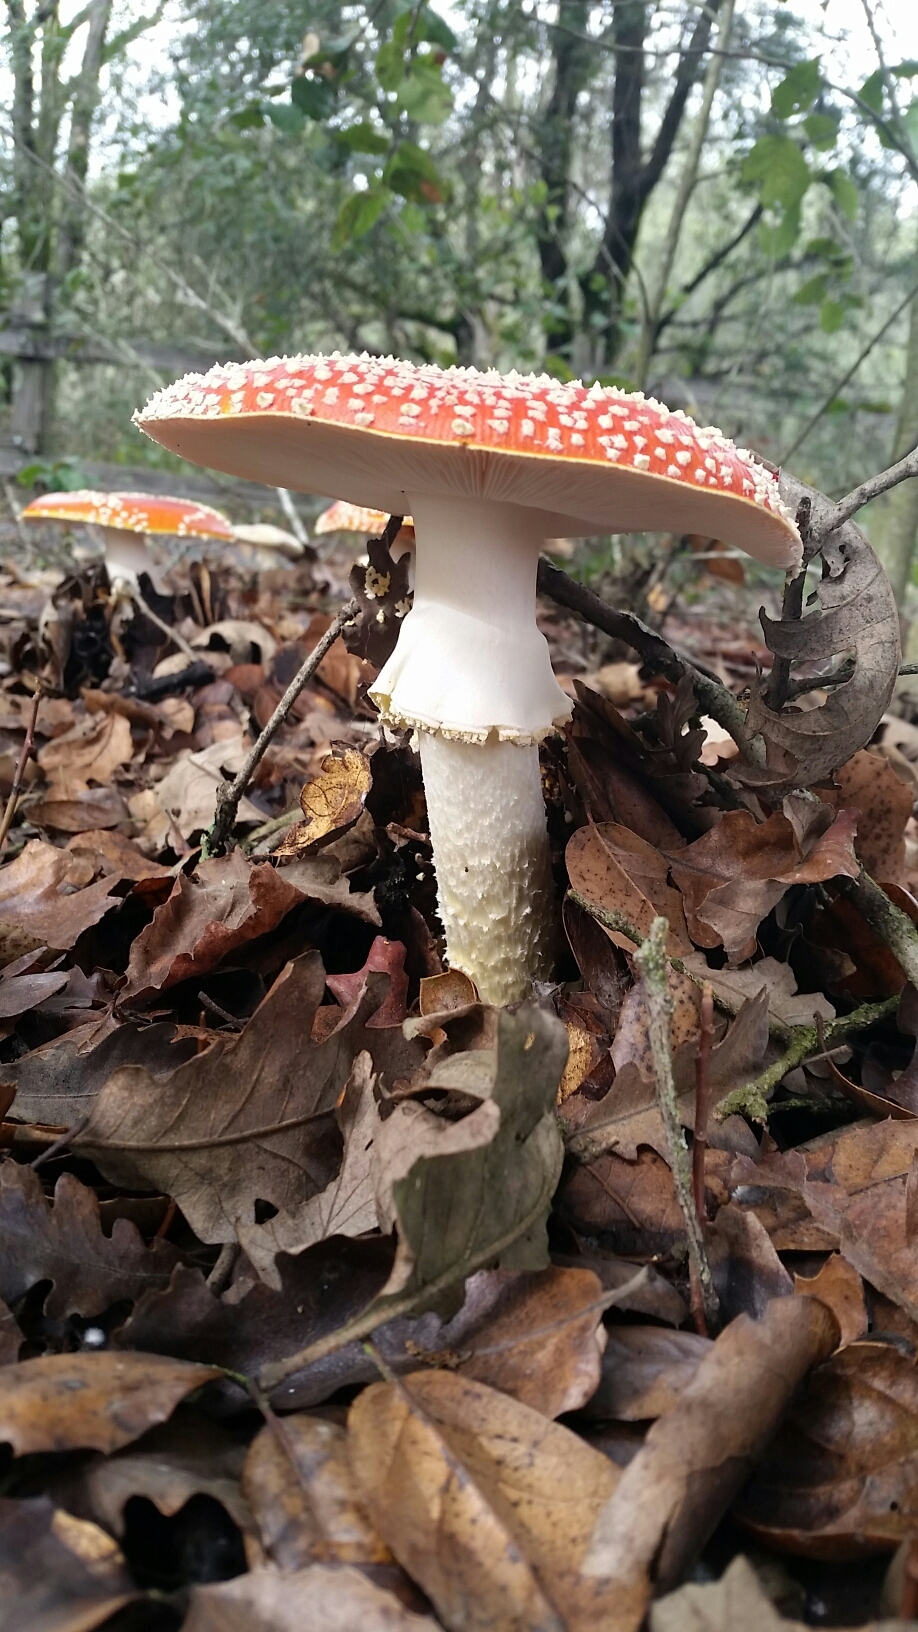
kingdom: Fungi
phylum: Basidiomycota
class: Agaricomycetes
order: Agaricales
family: Amanitaceae
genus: Amanita
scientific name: Amanita muscaria
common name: Fly agaric
